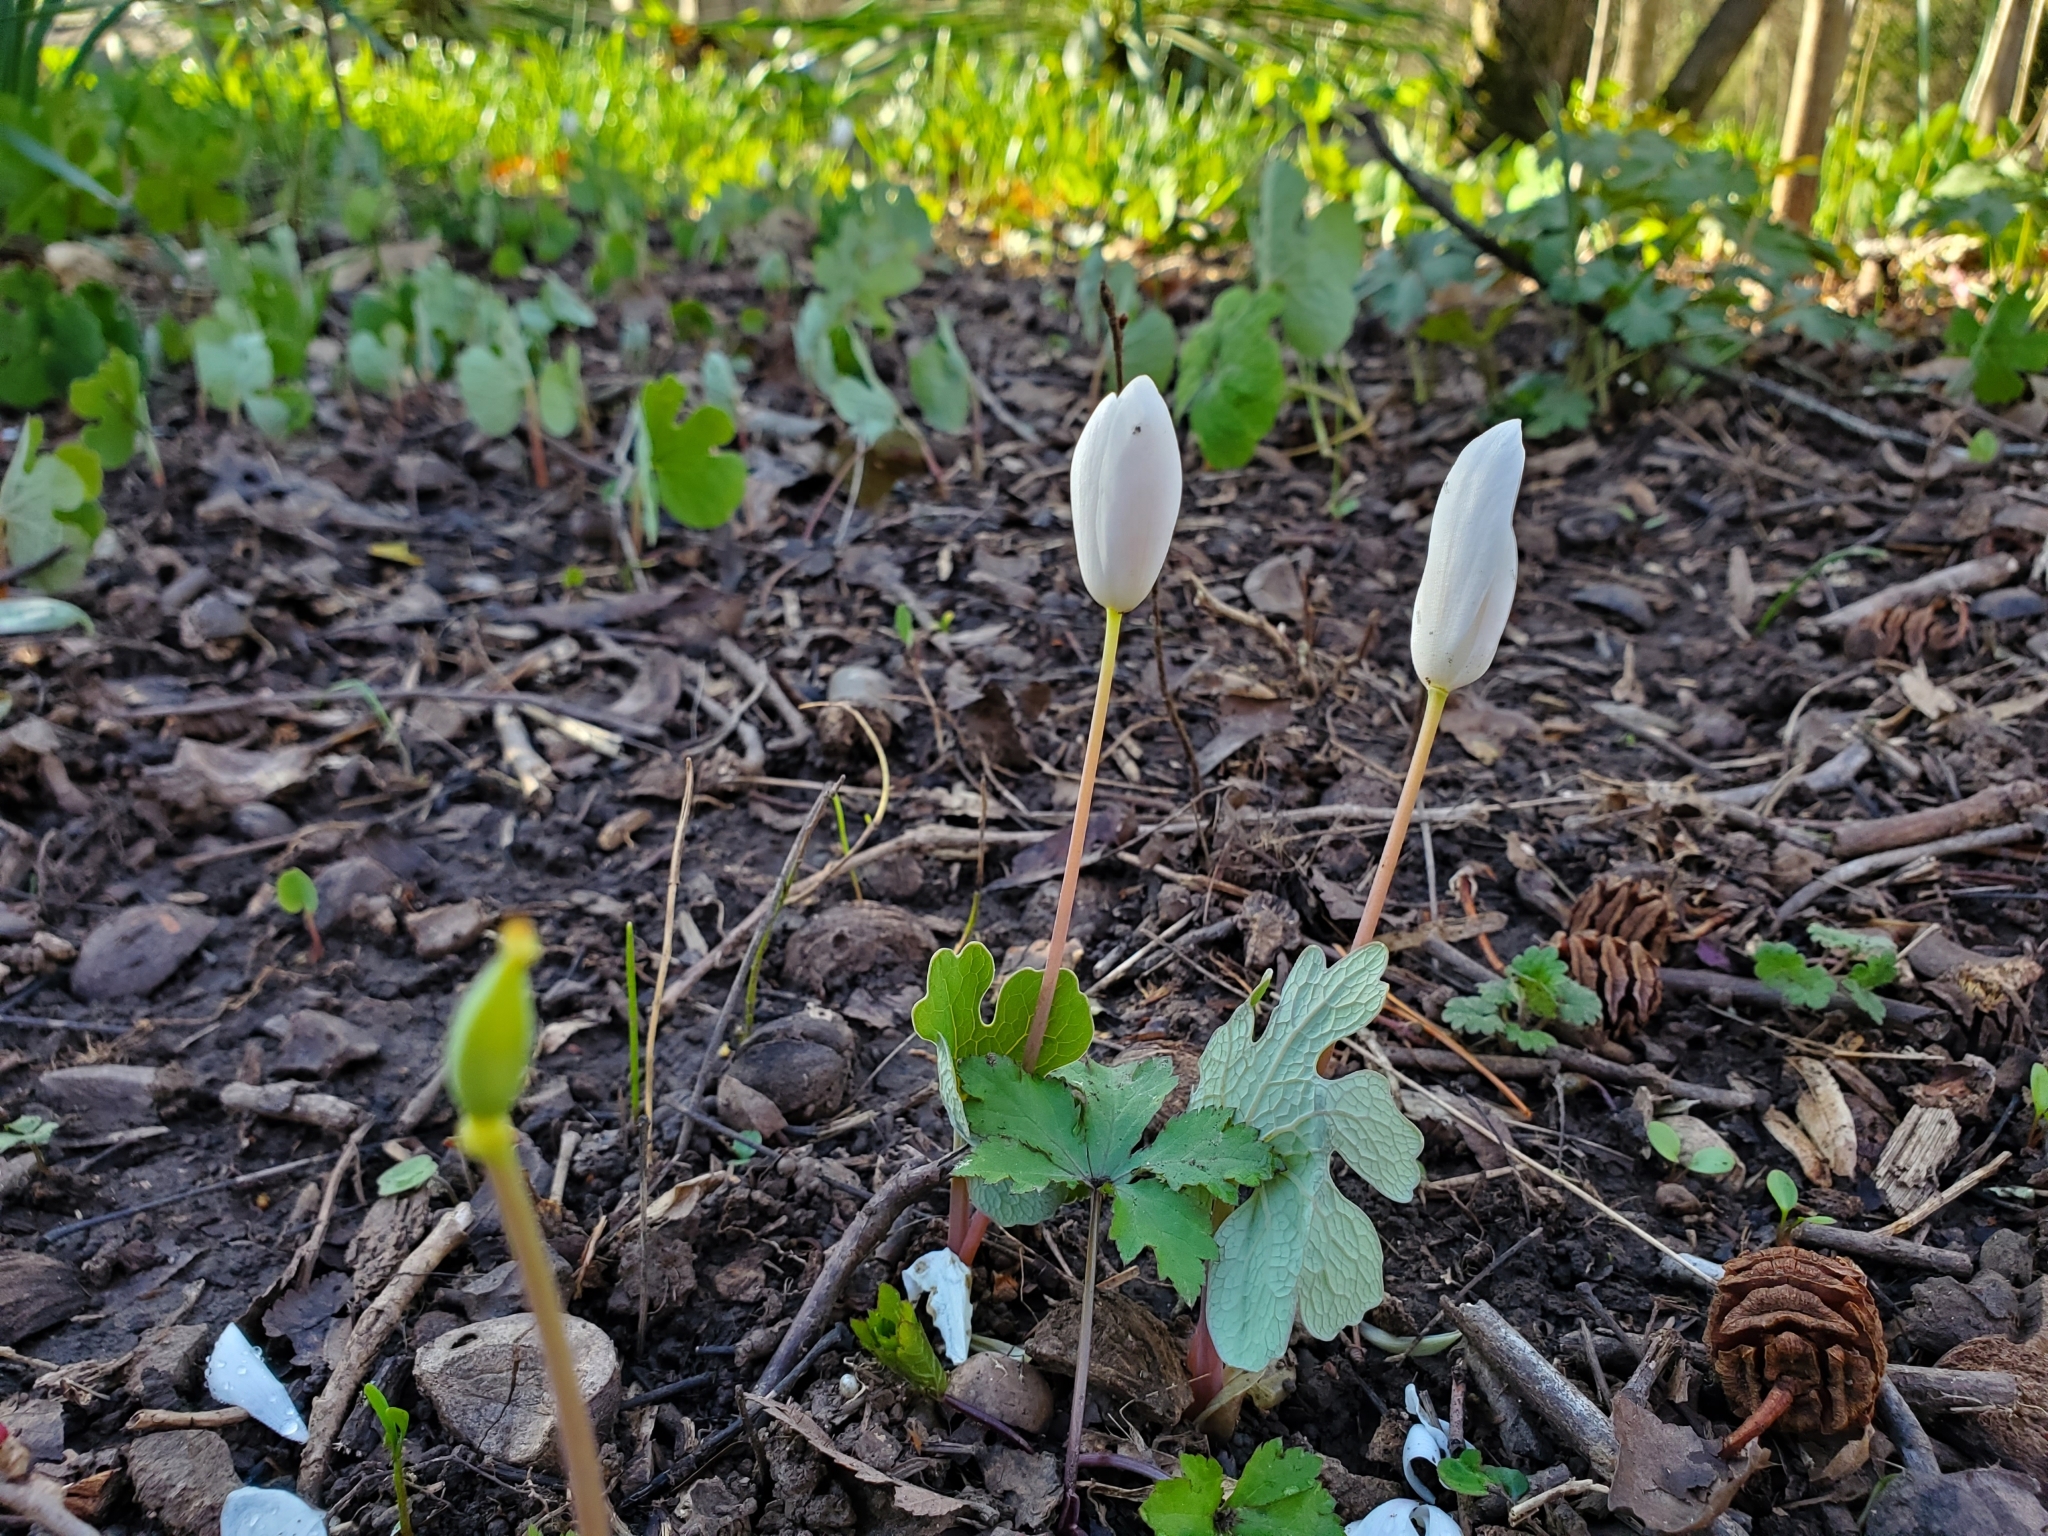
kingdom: Plantae
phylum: Tracheophyta
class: Magnoliopsida
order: Ranunculales
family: Papaveraceae
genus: Sanguinaria
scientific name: Sanguinaria canadensis
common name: Bloodroot
